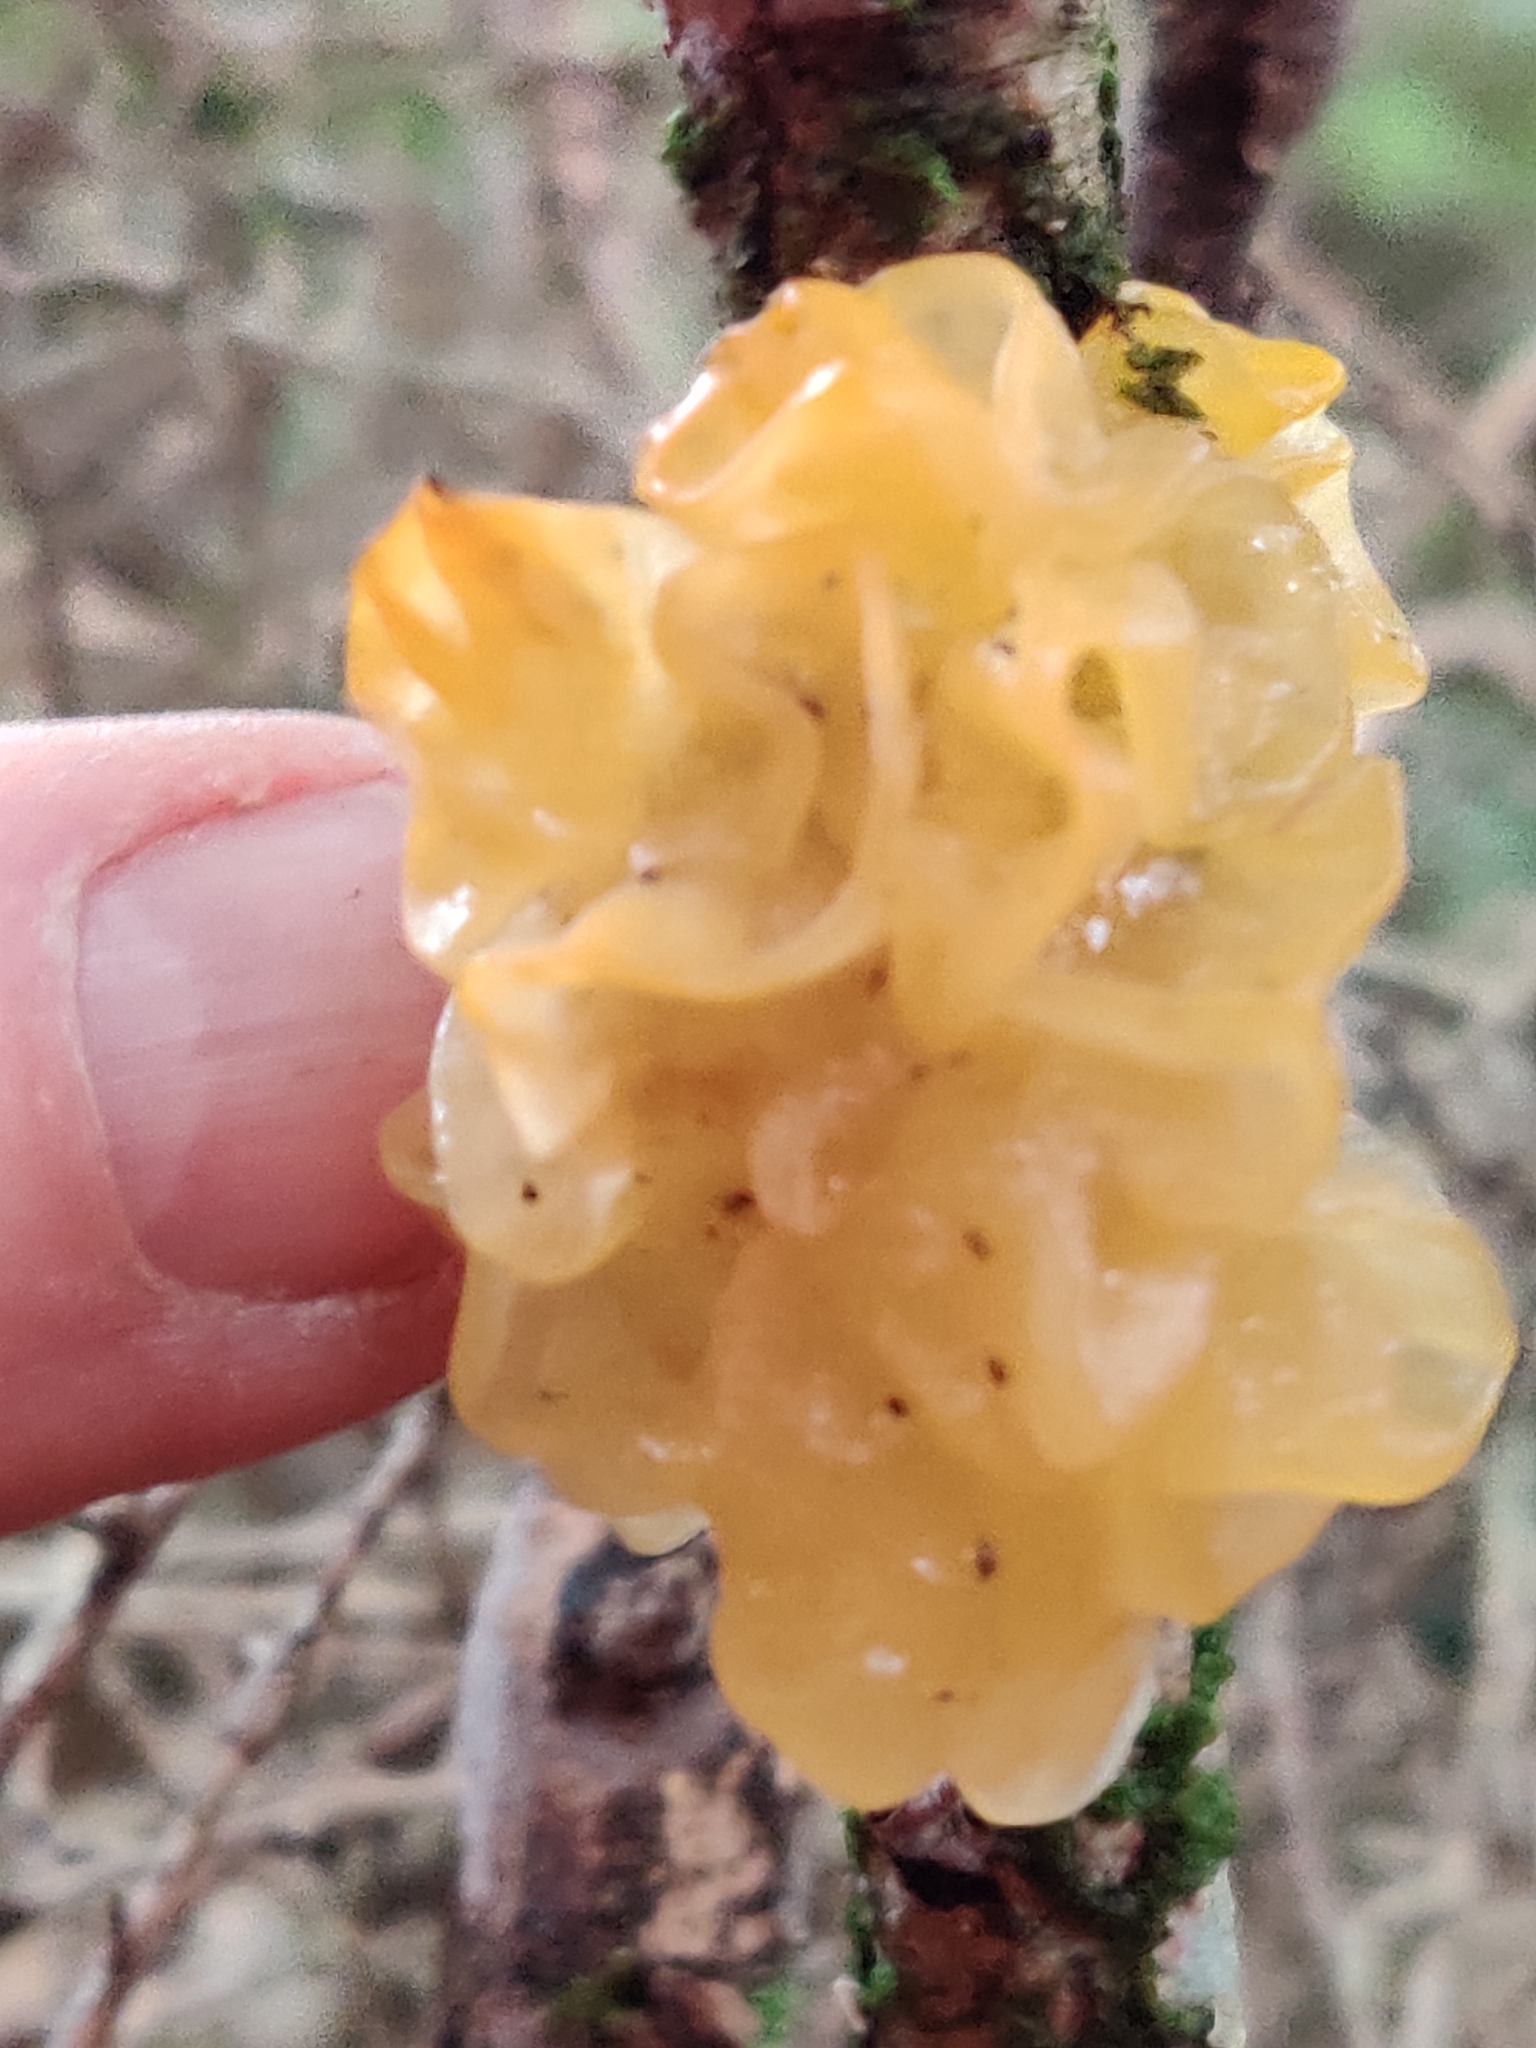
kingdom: Fungi
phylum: Basidiomycota
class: Tremellomycetes
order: Tremellales
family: Tremellaceae
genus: Tremella
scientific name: Tremella mesenterica
